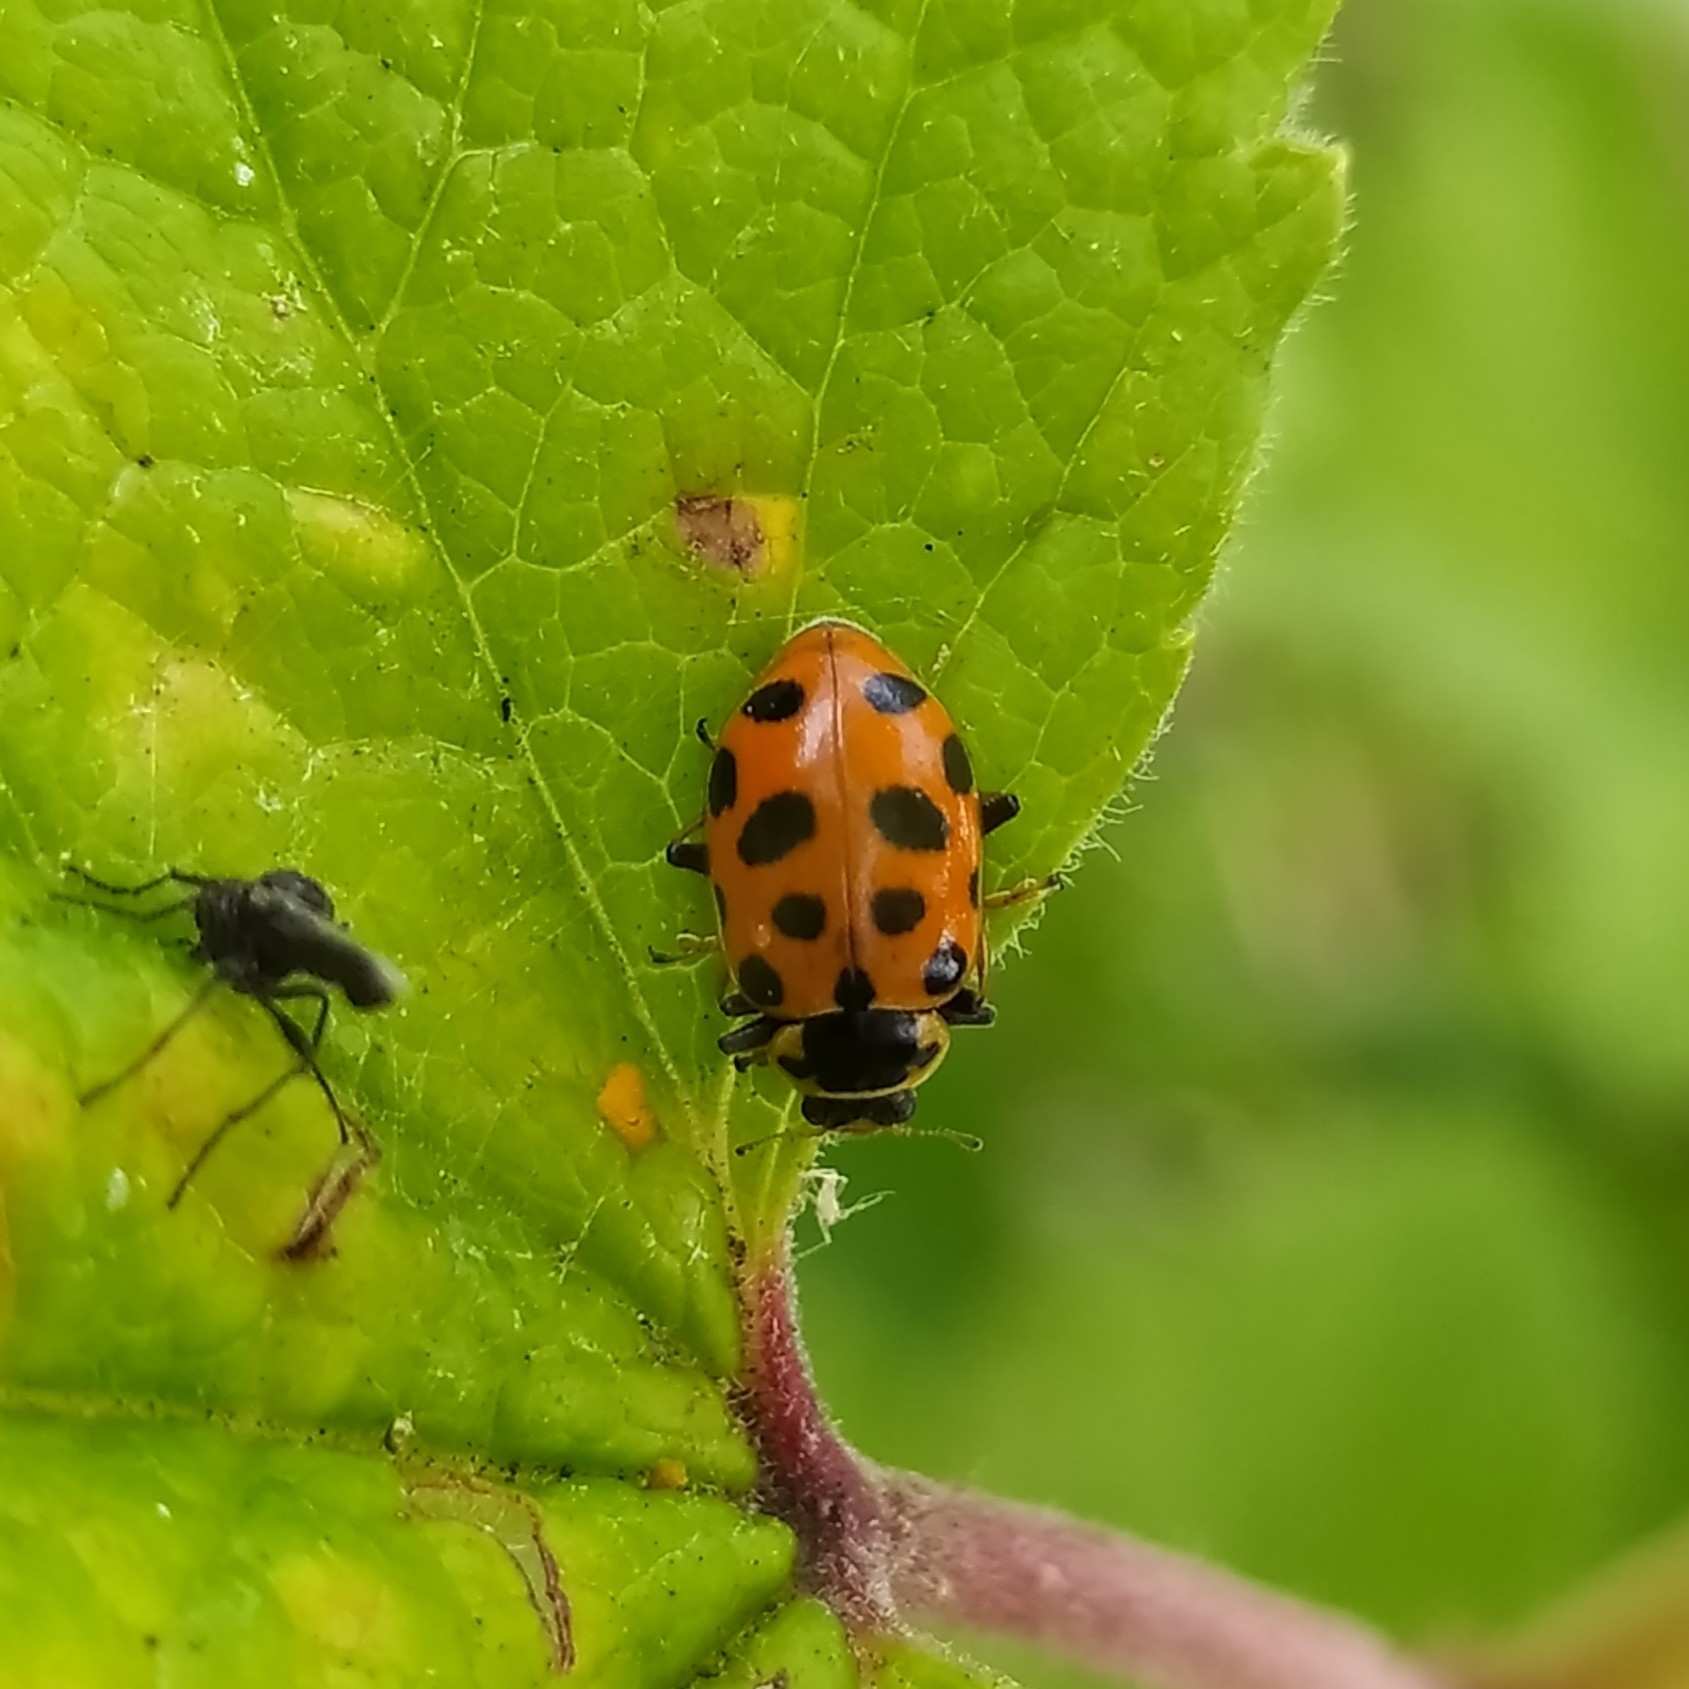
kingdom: Animalia
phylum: Arthropoda
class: Insecta
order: Coleoptera
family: Coccinellidae
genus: Hippodamia
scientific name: Hippodamia tredecimpunctata
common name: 13-spot ladybird
